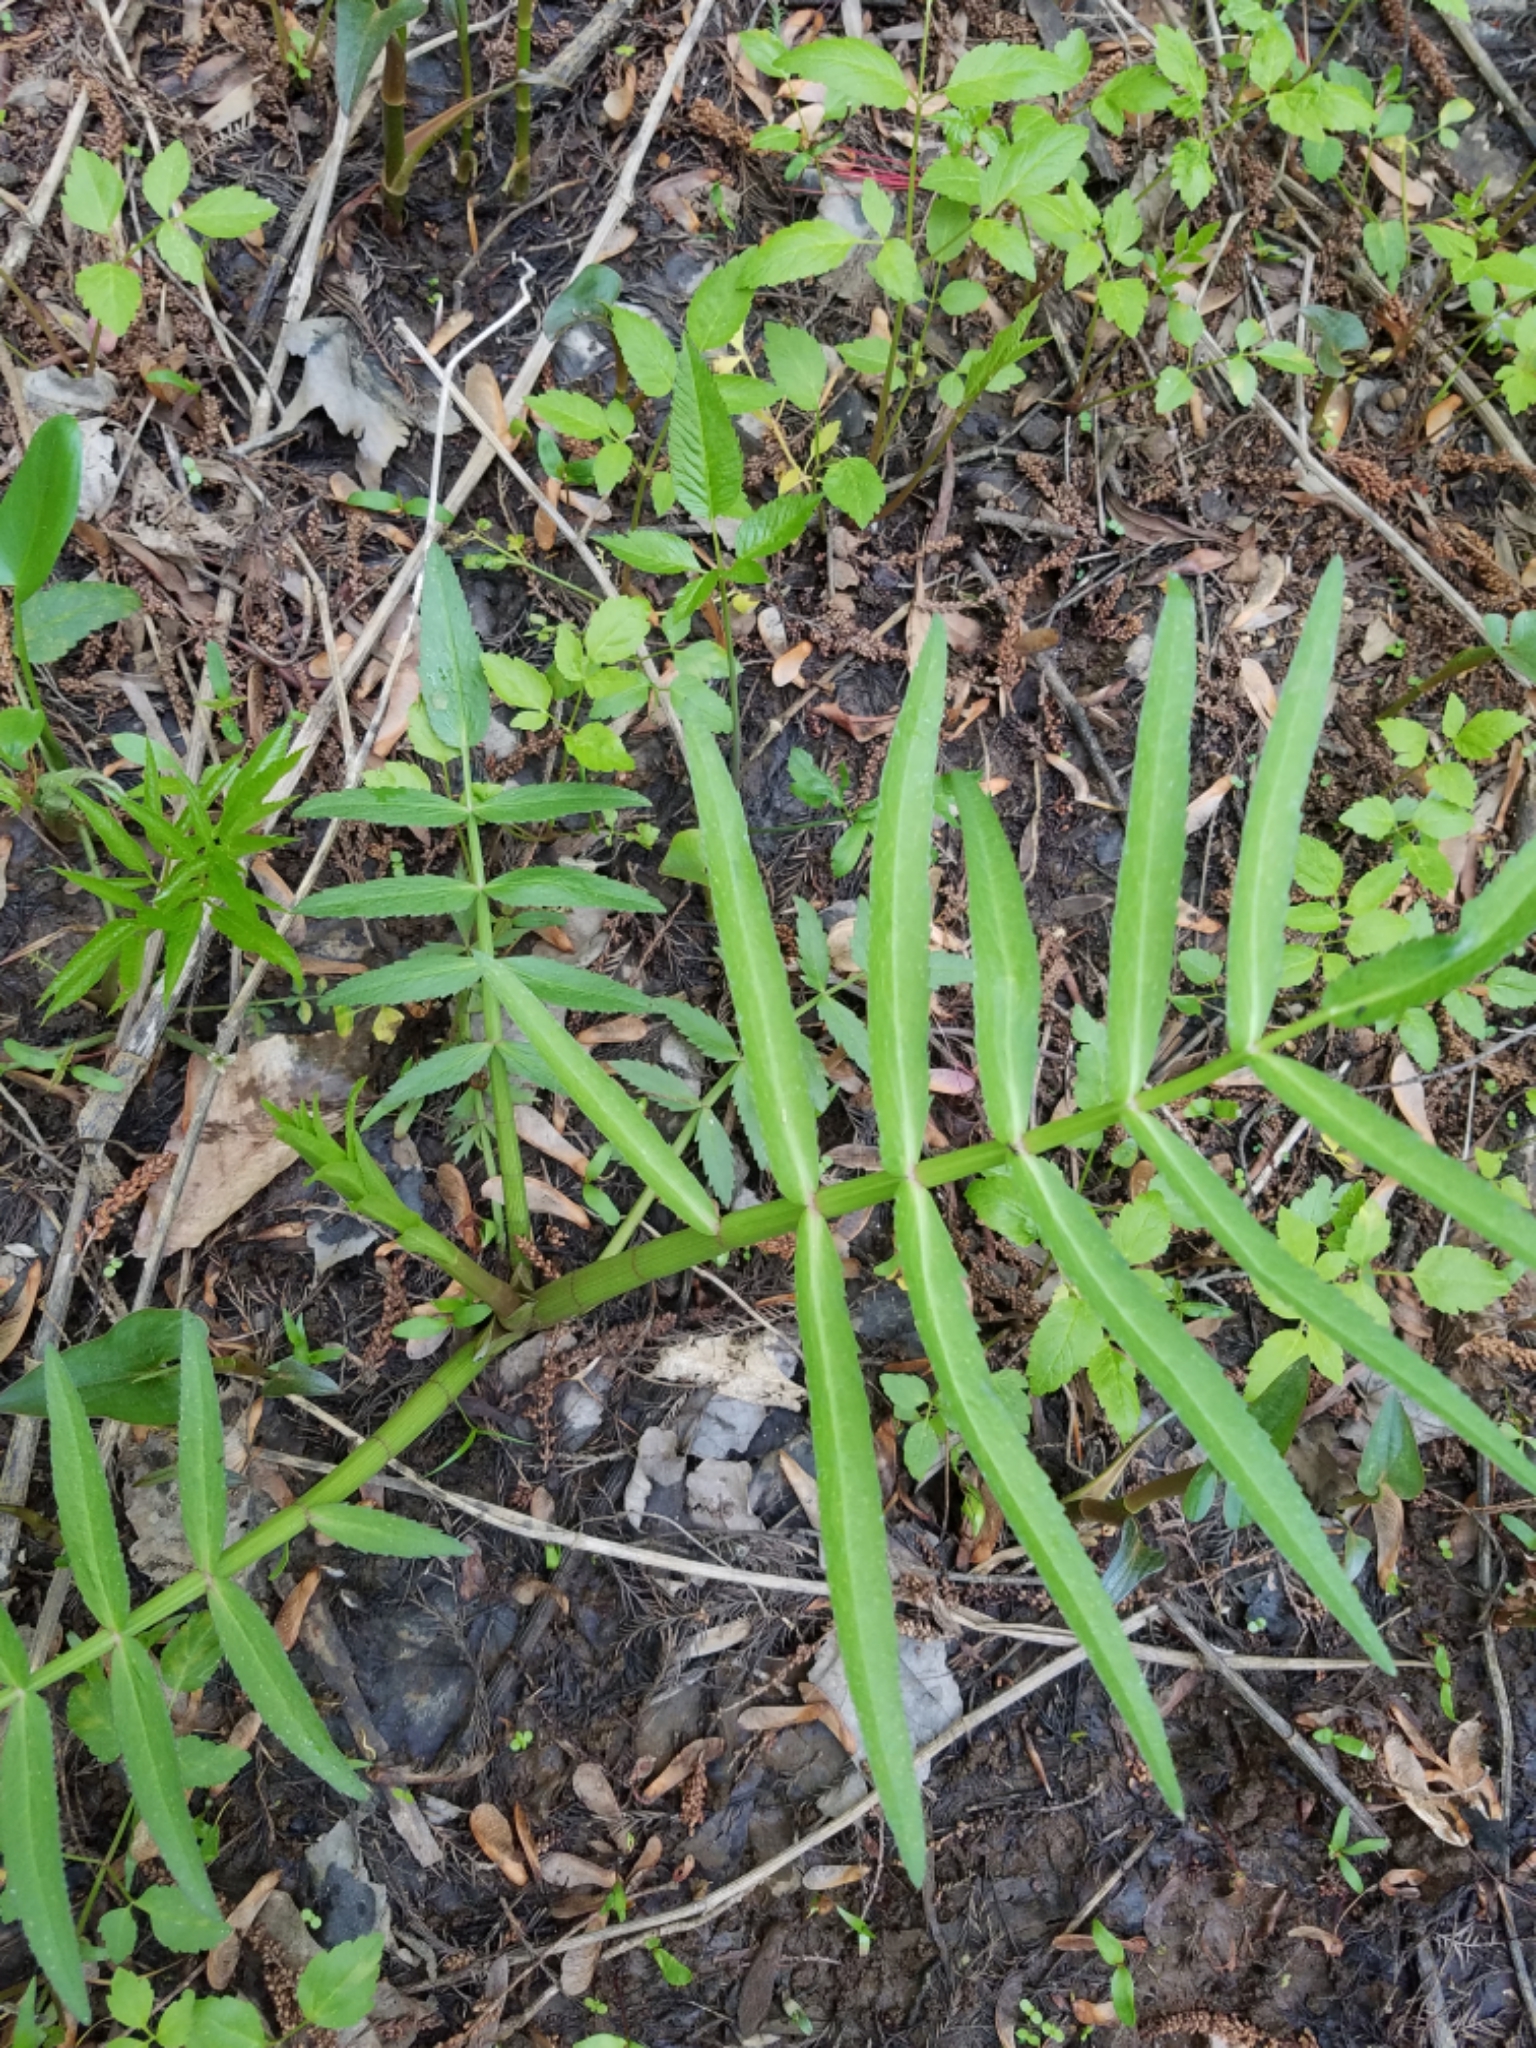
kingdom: Plantae
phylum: Tracheophyta
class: Magnoliopsida
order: Apiales
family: Apiaceae
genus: Sium
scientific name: Sium suave
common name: Hemlock water-parsnip
